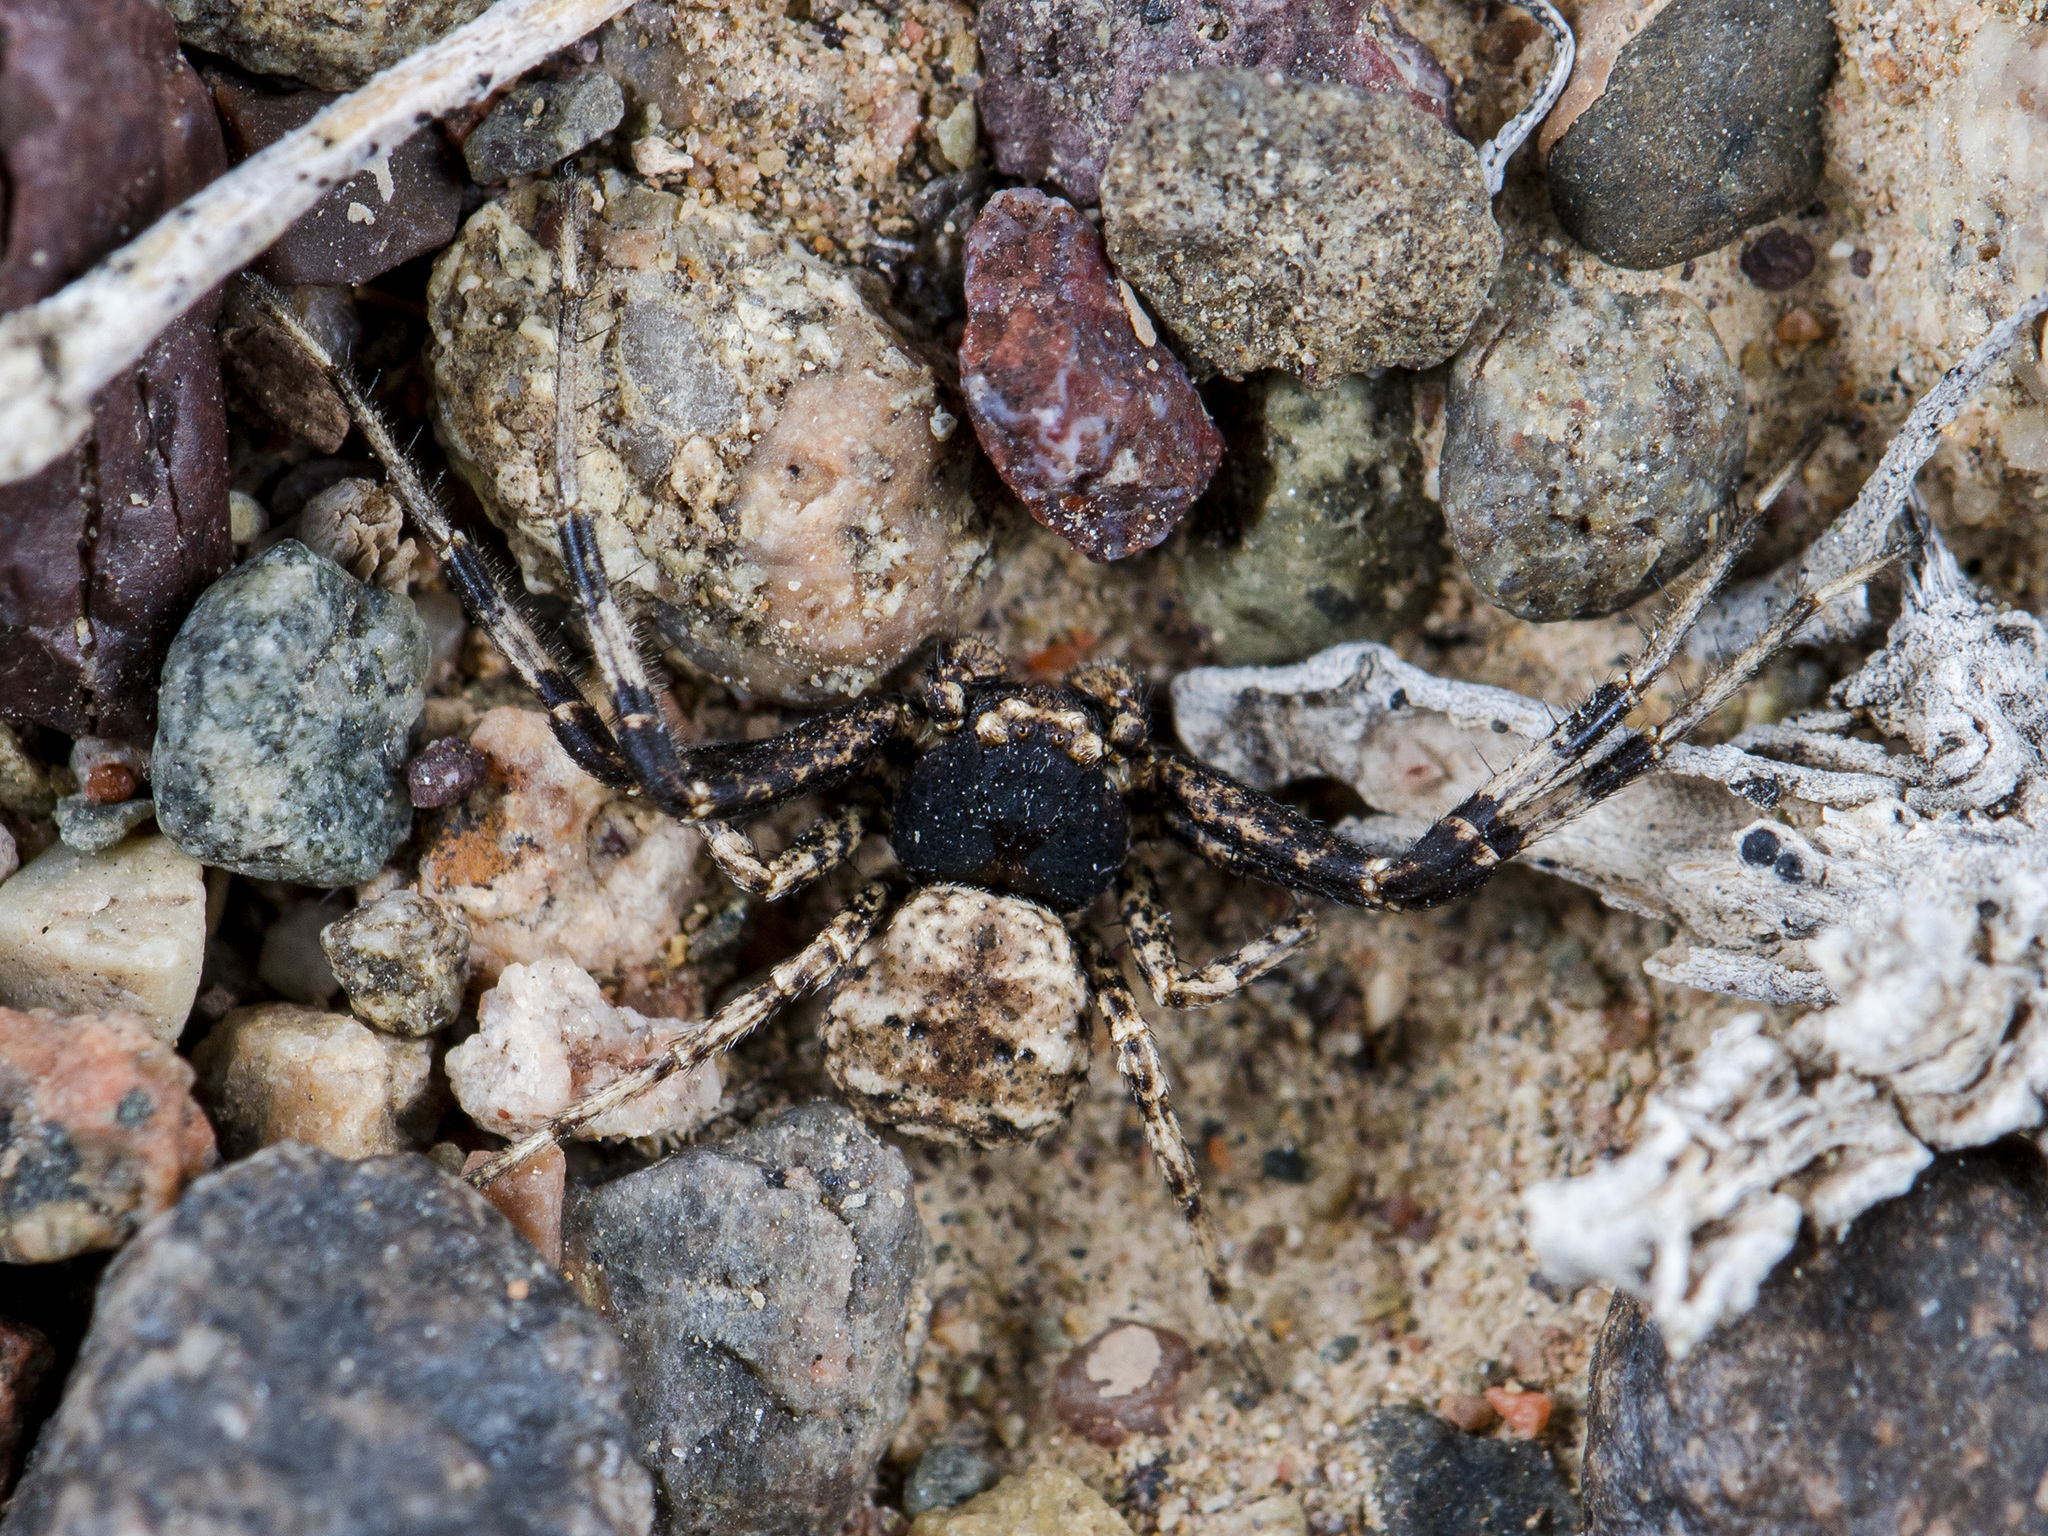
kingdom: Animalia
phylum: Arthropoda
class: Arachnida
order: Araneae
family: Thomisidae
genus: Ozyptila
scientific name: Ozyptila lugubris
